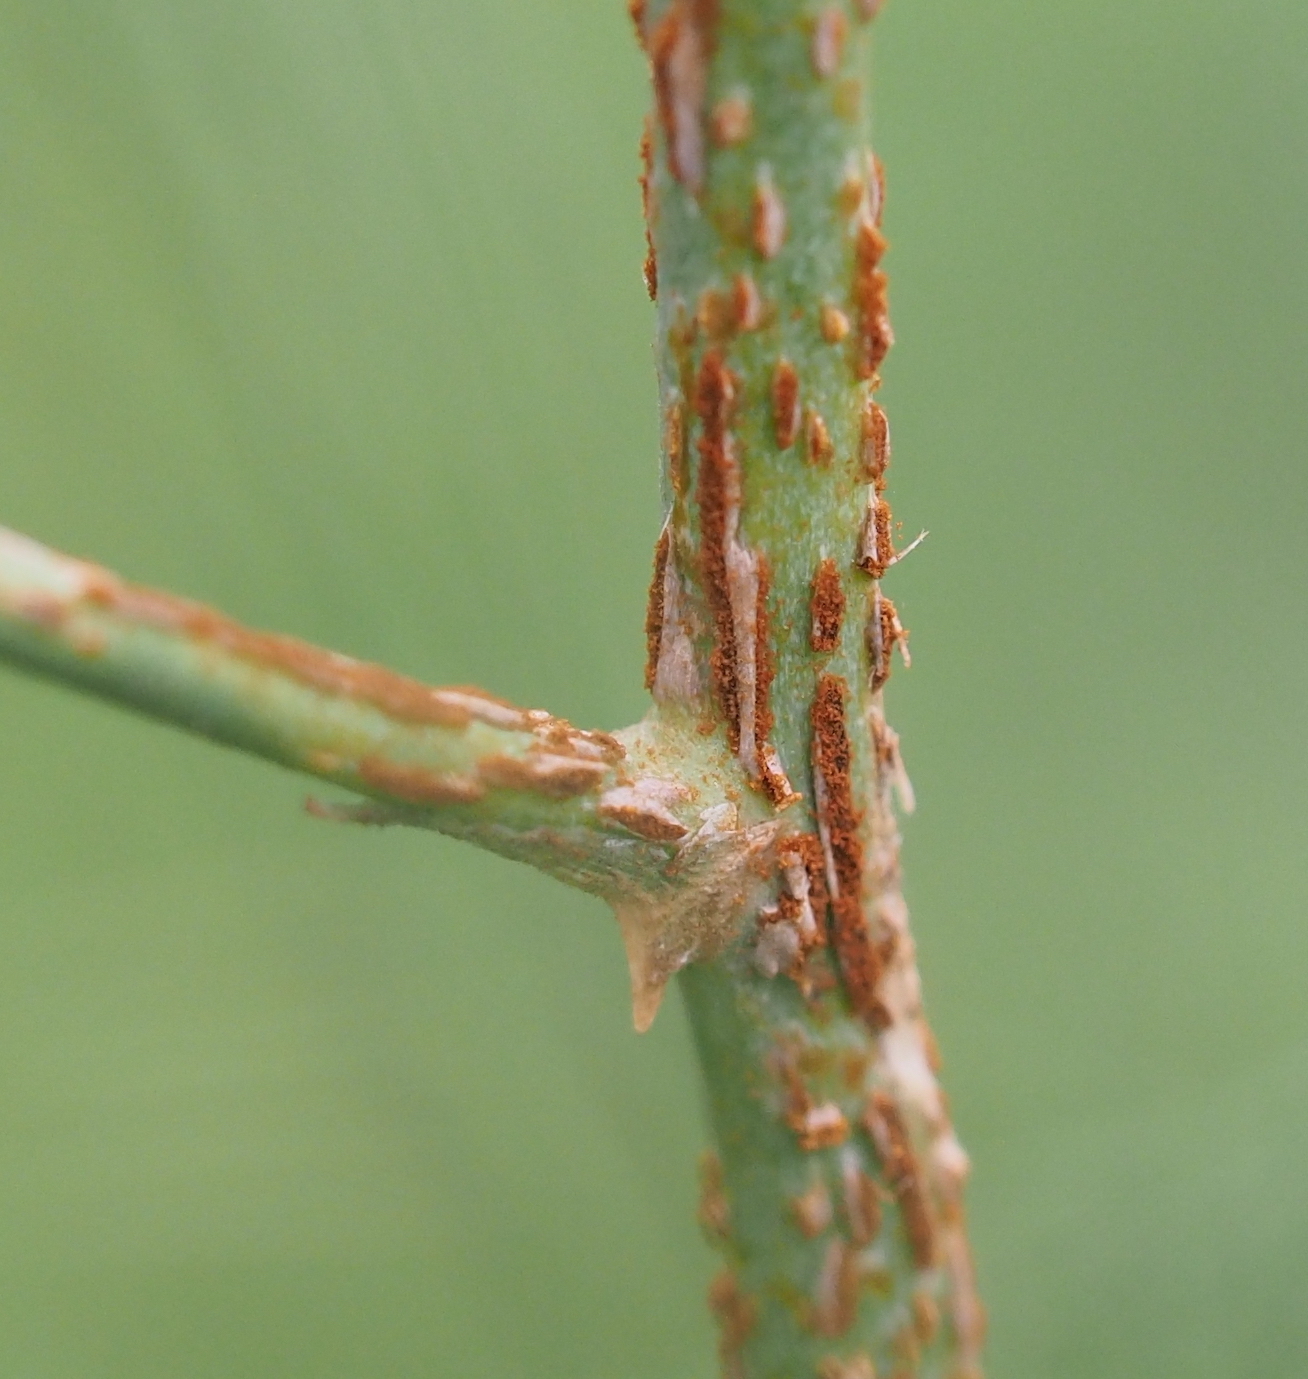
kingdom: Fungi
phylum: Basidiomycota
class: Pucciniomycetes
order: Pucciniales
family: Pucciniaceae
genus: Puccinia
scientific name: Puccinia asparagi
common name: Asparagus rust
